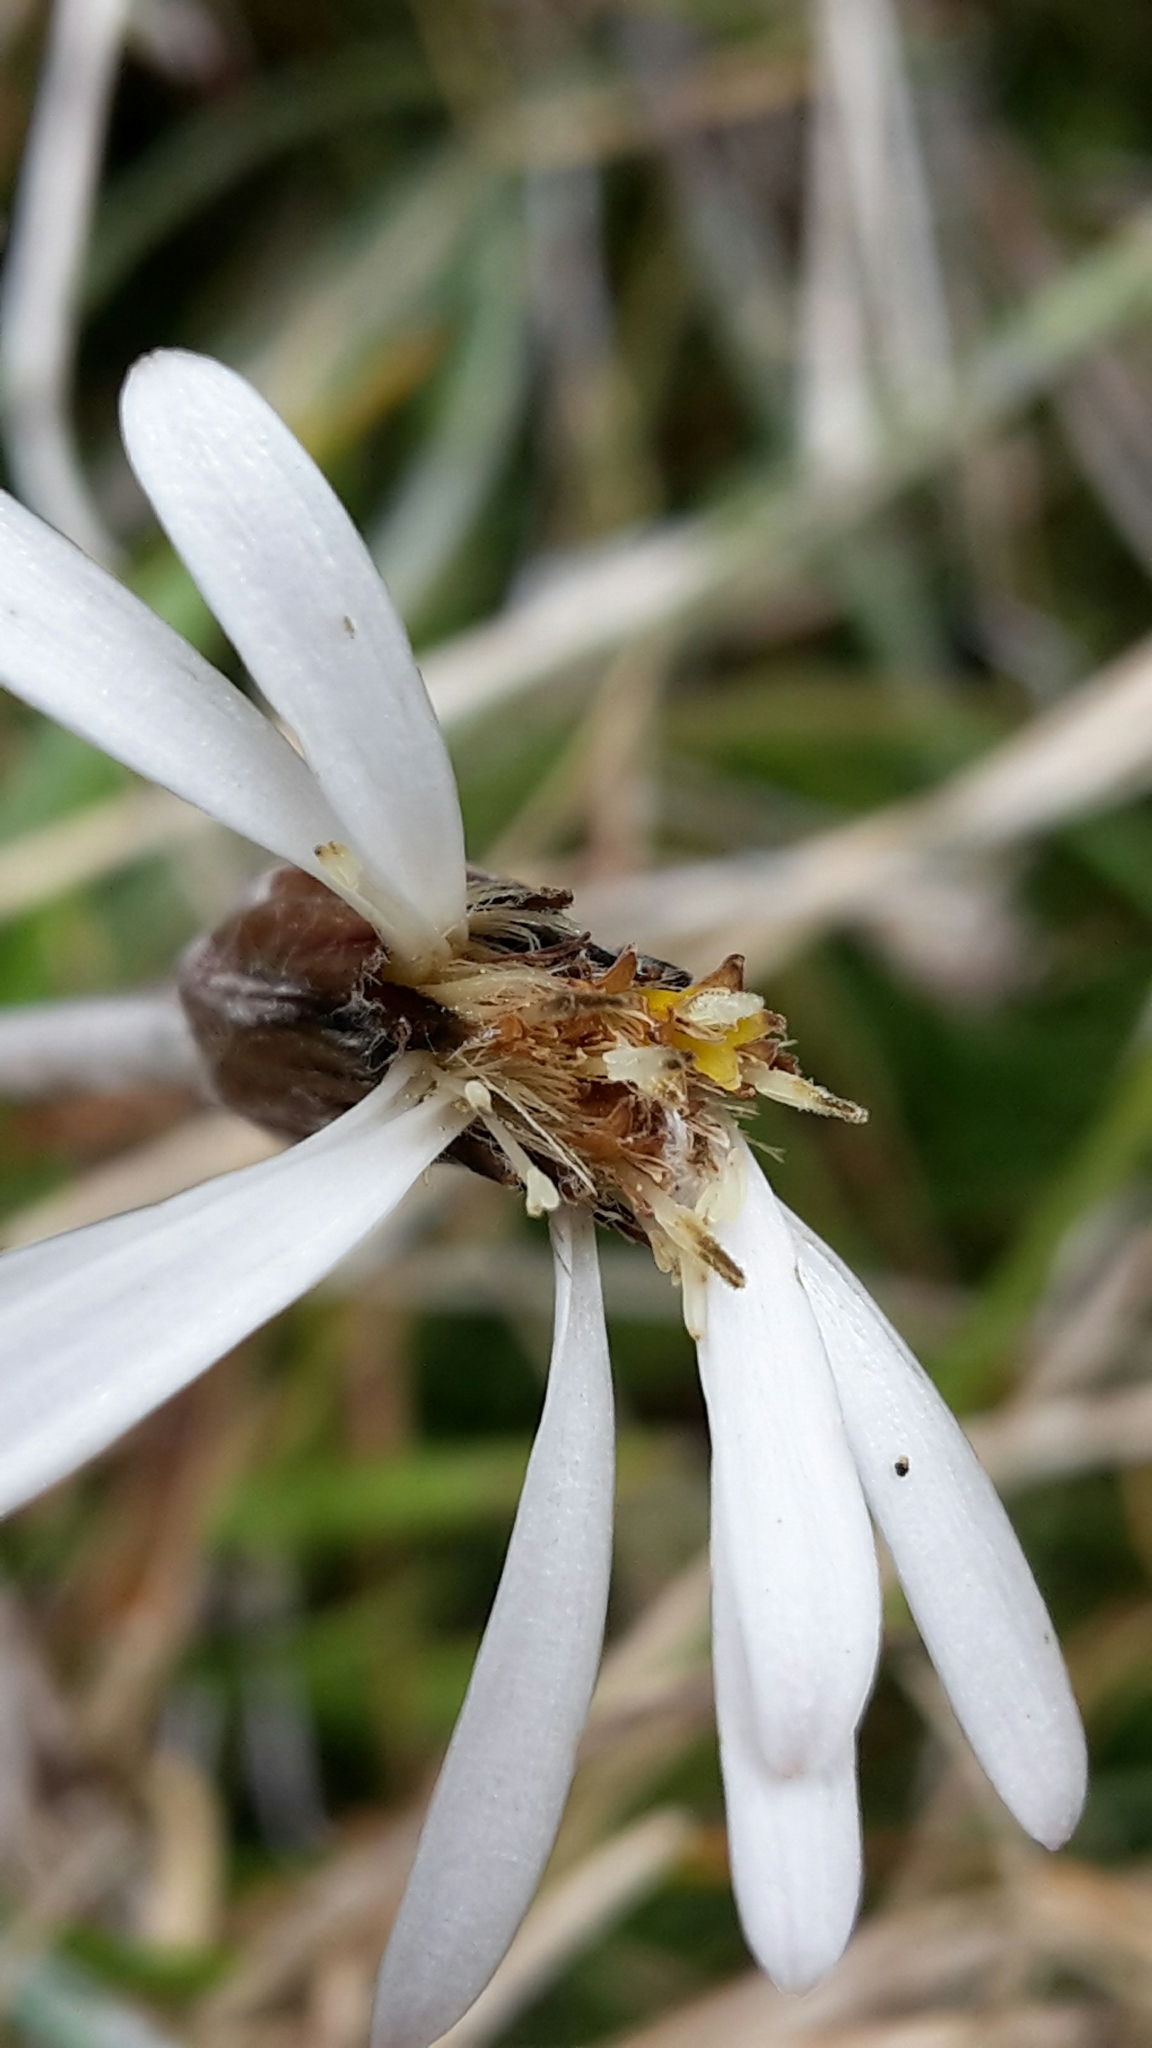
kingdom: Plantae
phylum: Tracheophyta
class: Magnoliopsida
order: Asterales
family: Asteraceae
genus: Celmisia
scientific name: Celmisia gracilenta
